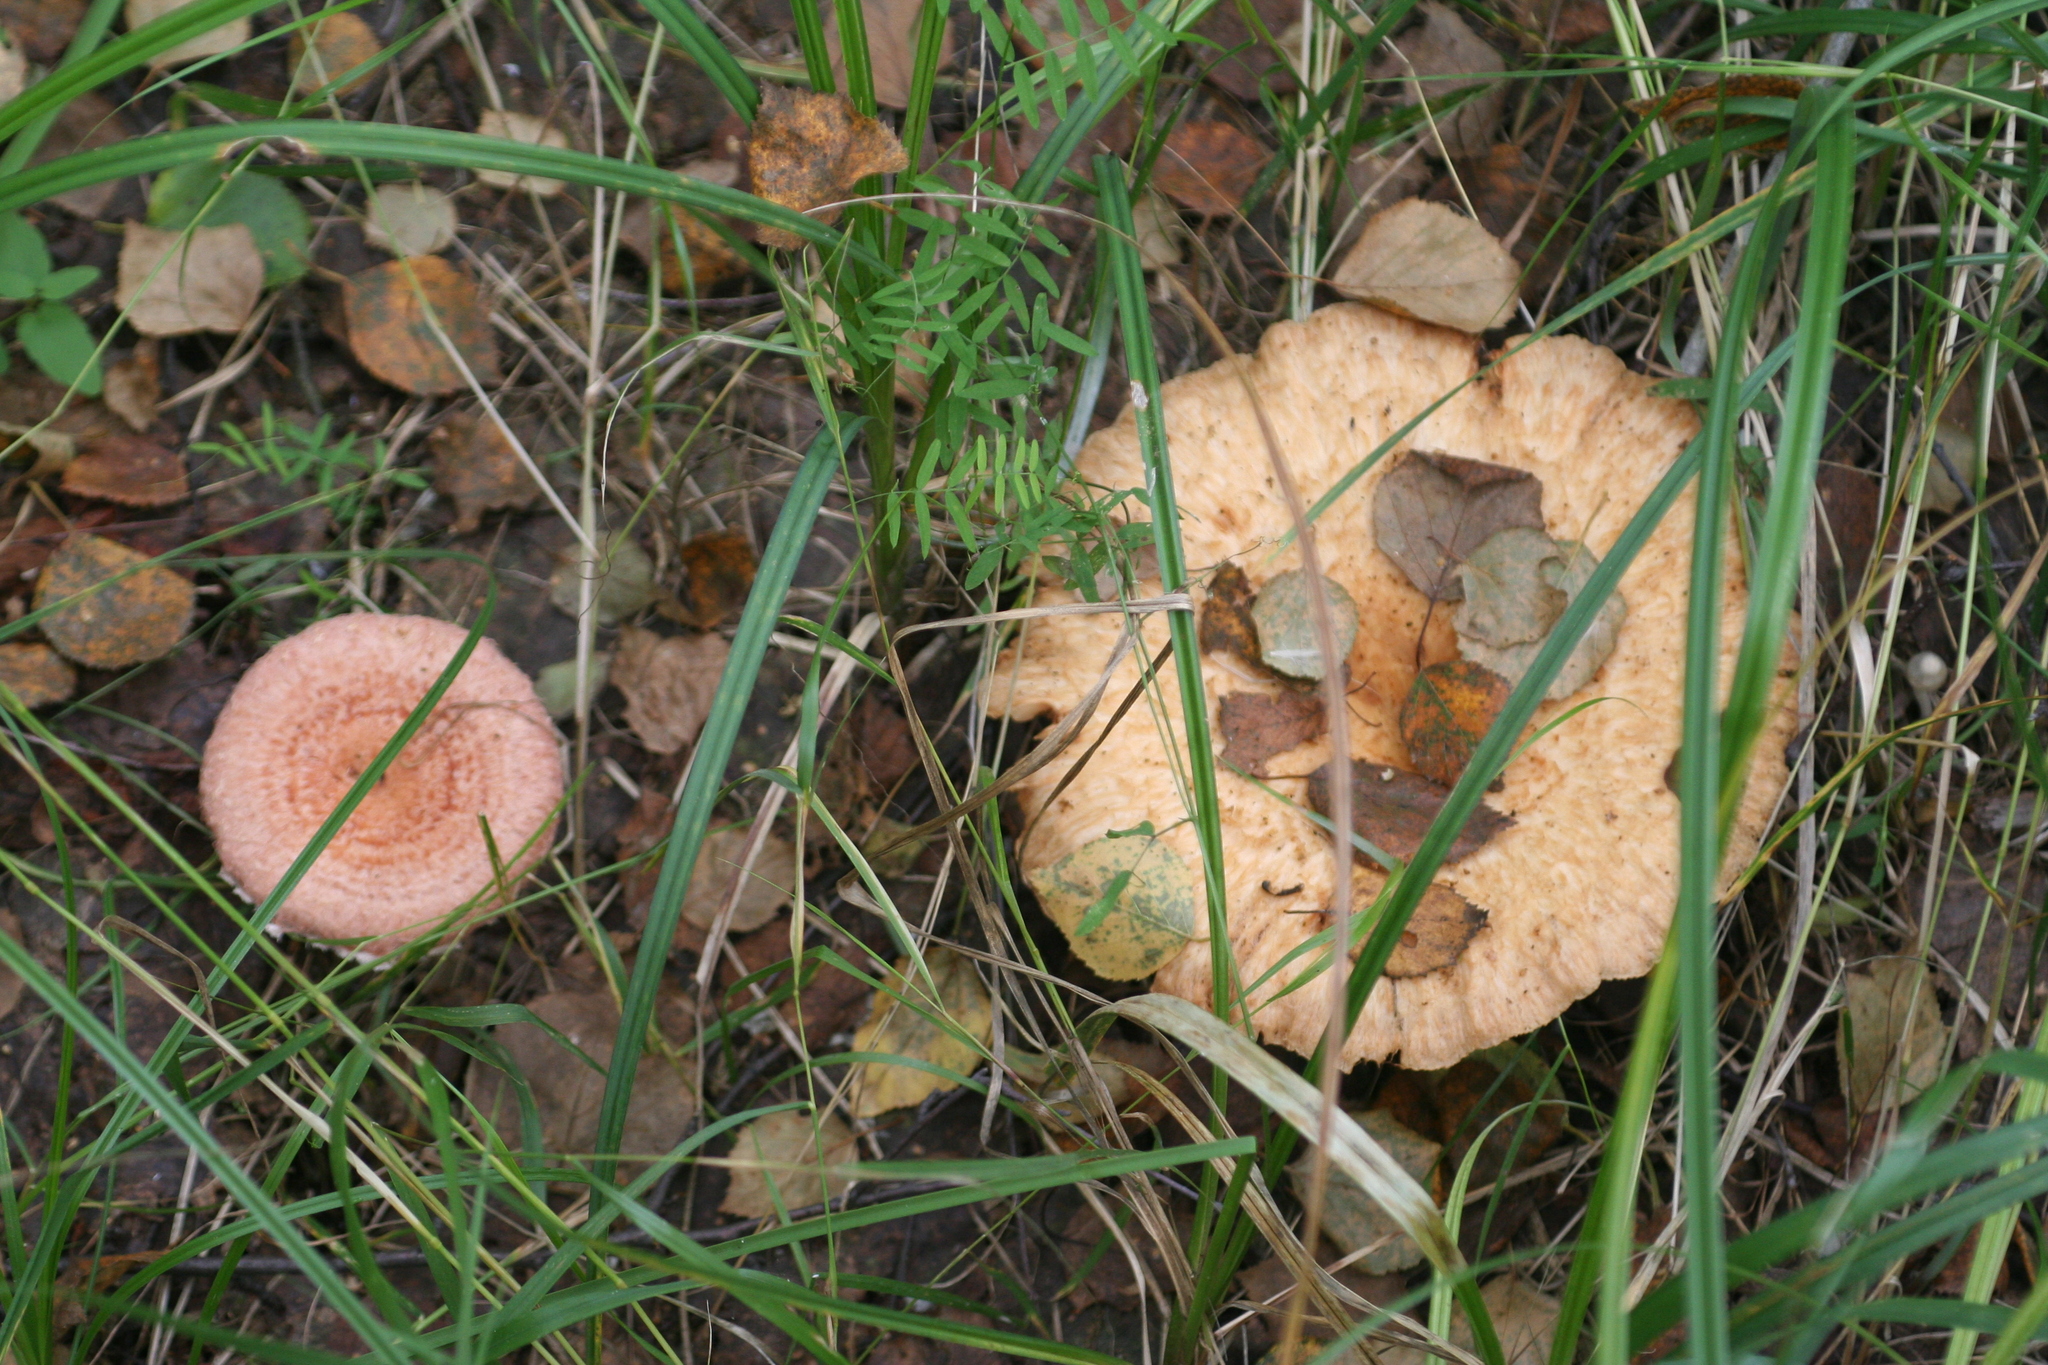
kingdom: Fungi
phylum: Basidiomycota
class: Agaricomycetes
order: Russulales
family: Russulaceae
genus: Lactarius
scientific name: Lactarius torminosus
